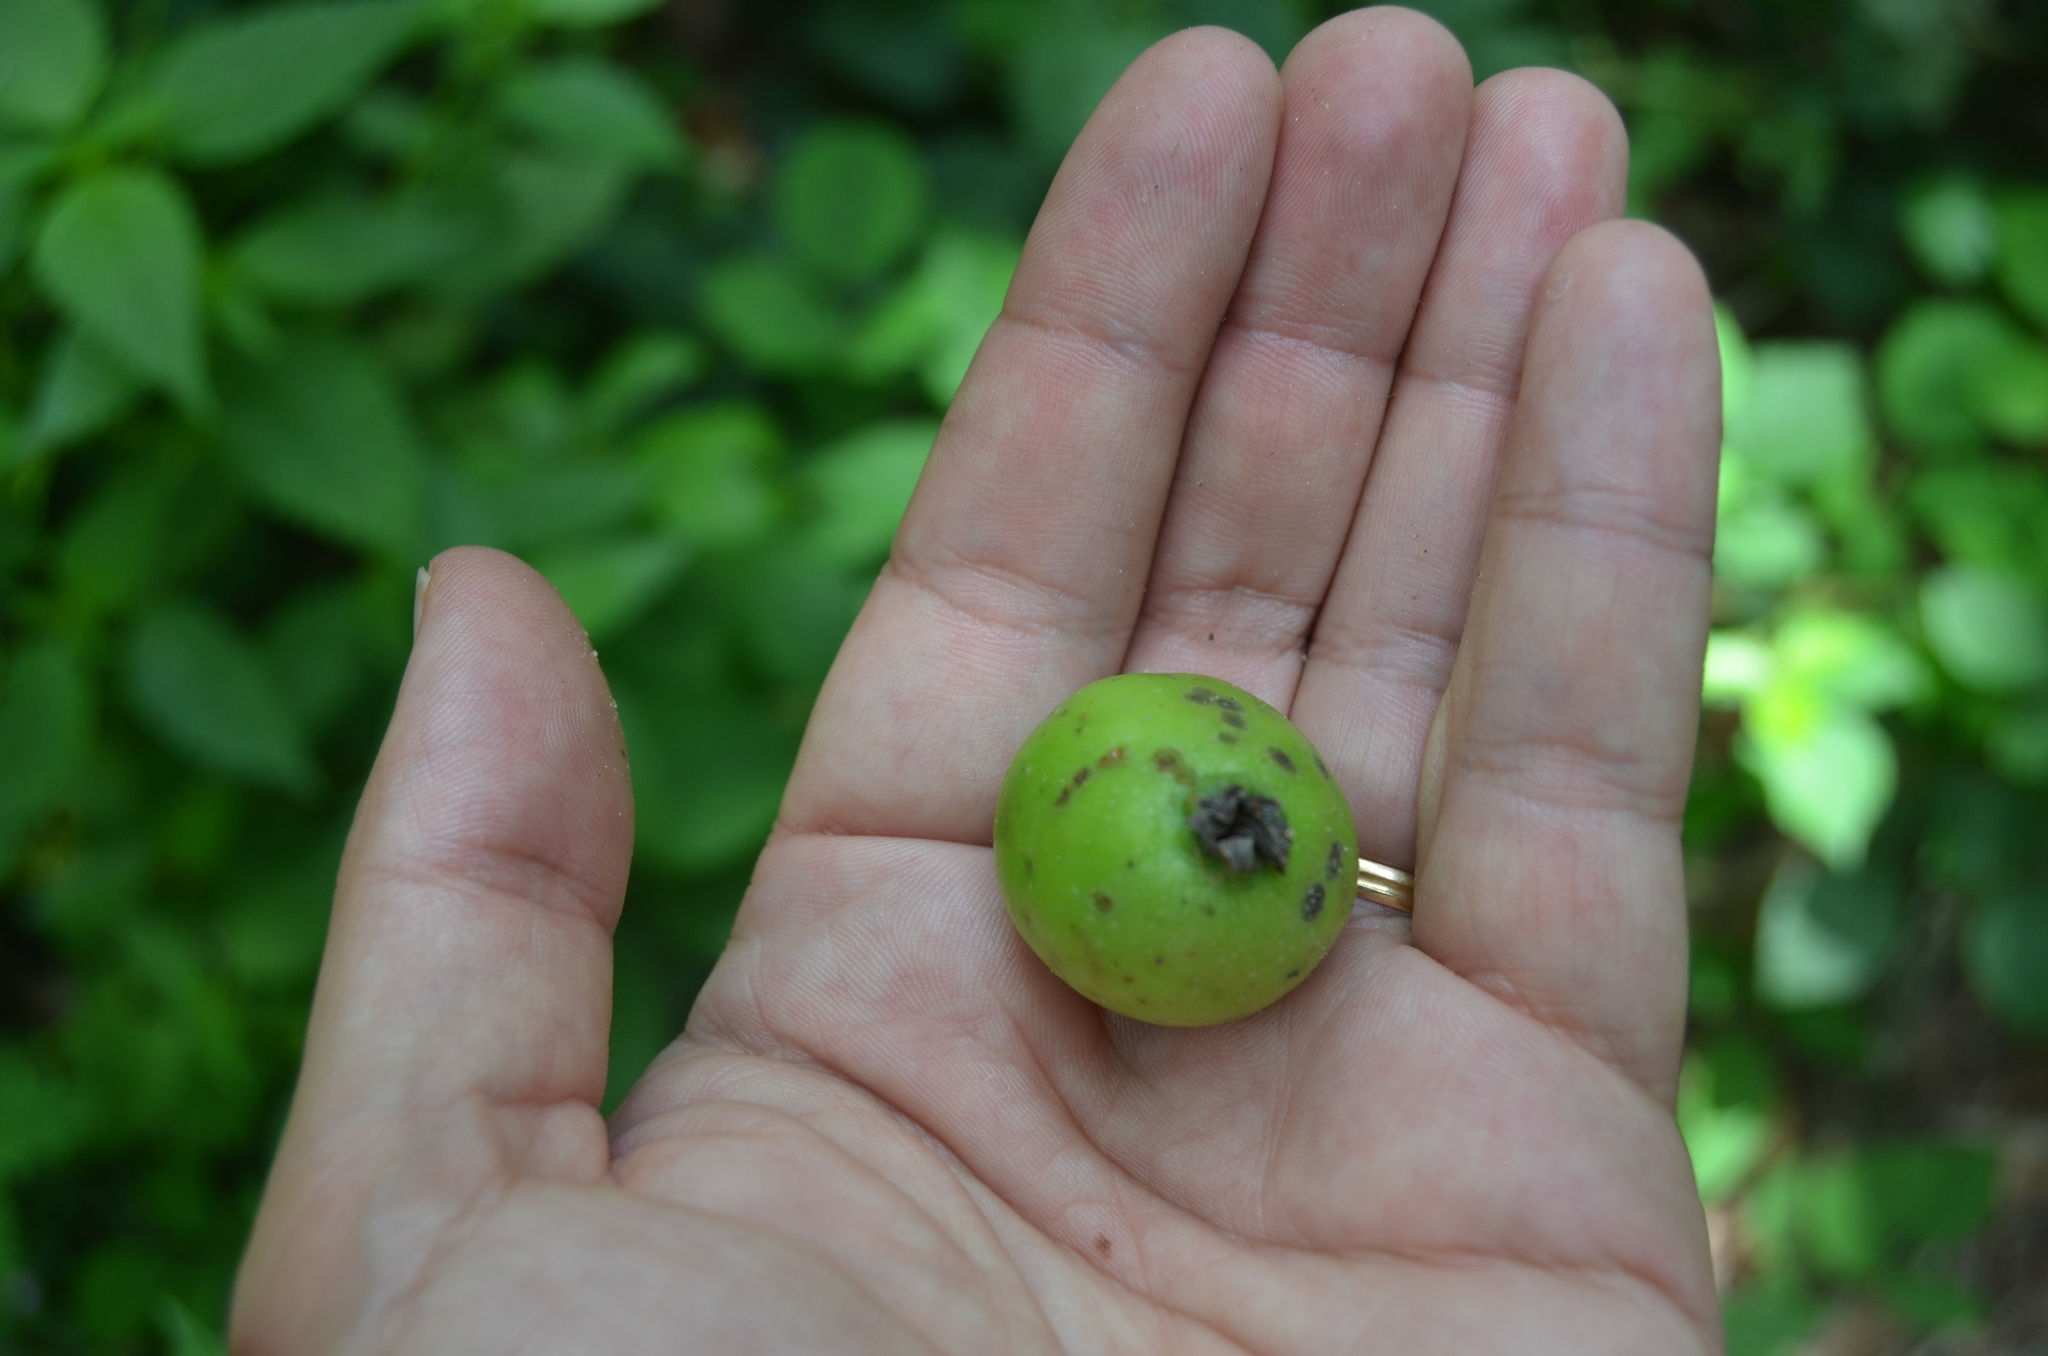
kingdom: Plantae
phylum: Tracheophyta
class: Magnoliopsida
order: Rosales
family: Rosaceae
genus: Malus
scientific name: Malus sylvestris
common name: Crab apple
